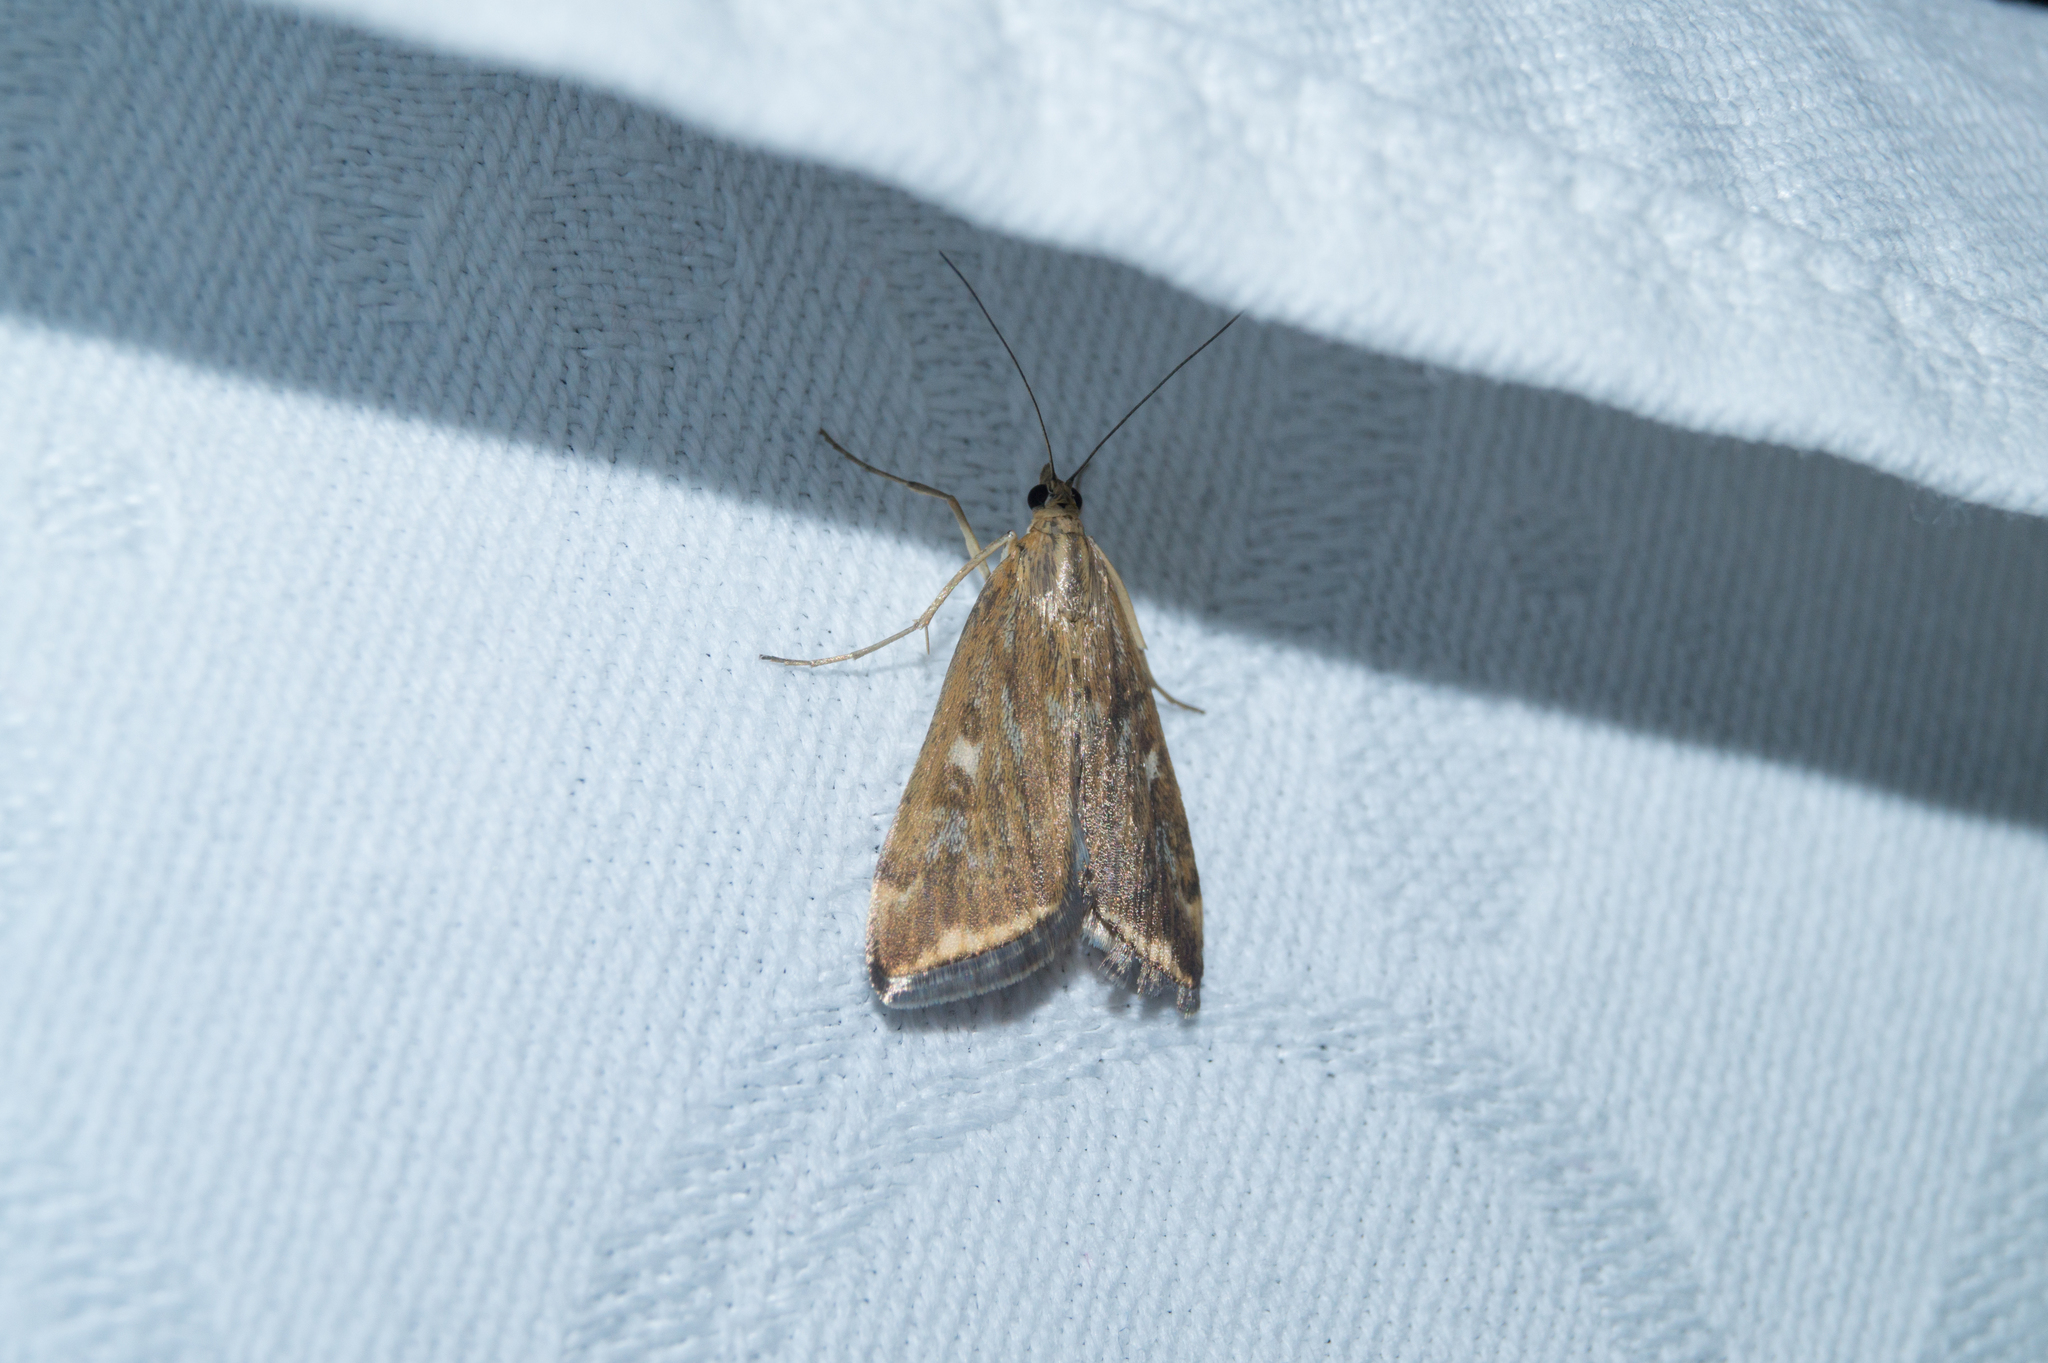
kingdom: Animalia
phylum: Arthropoda
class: Insecta
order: Lepidoptera
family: Crambidae
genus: Loxostege
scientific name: Loxostege sticticalis
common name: Crambid moth
